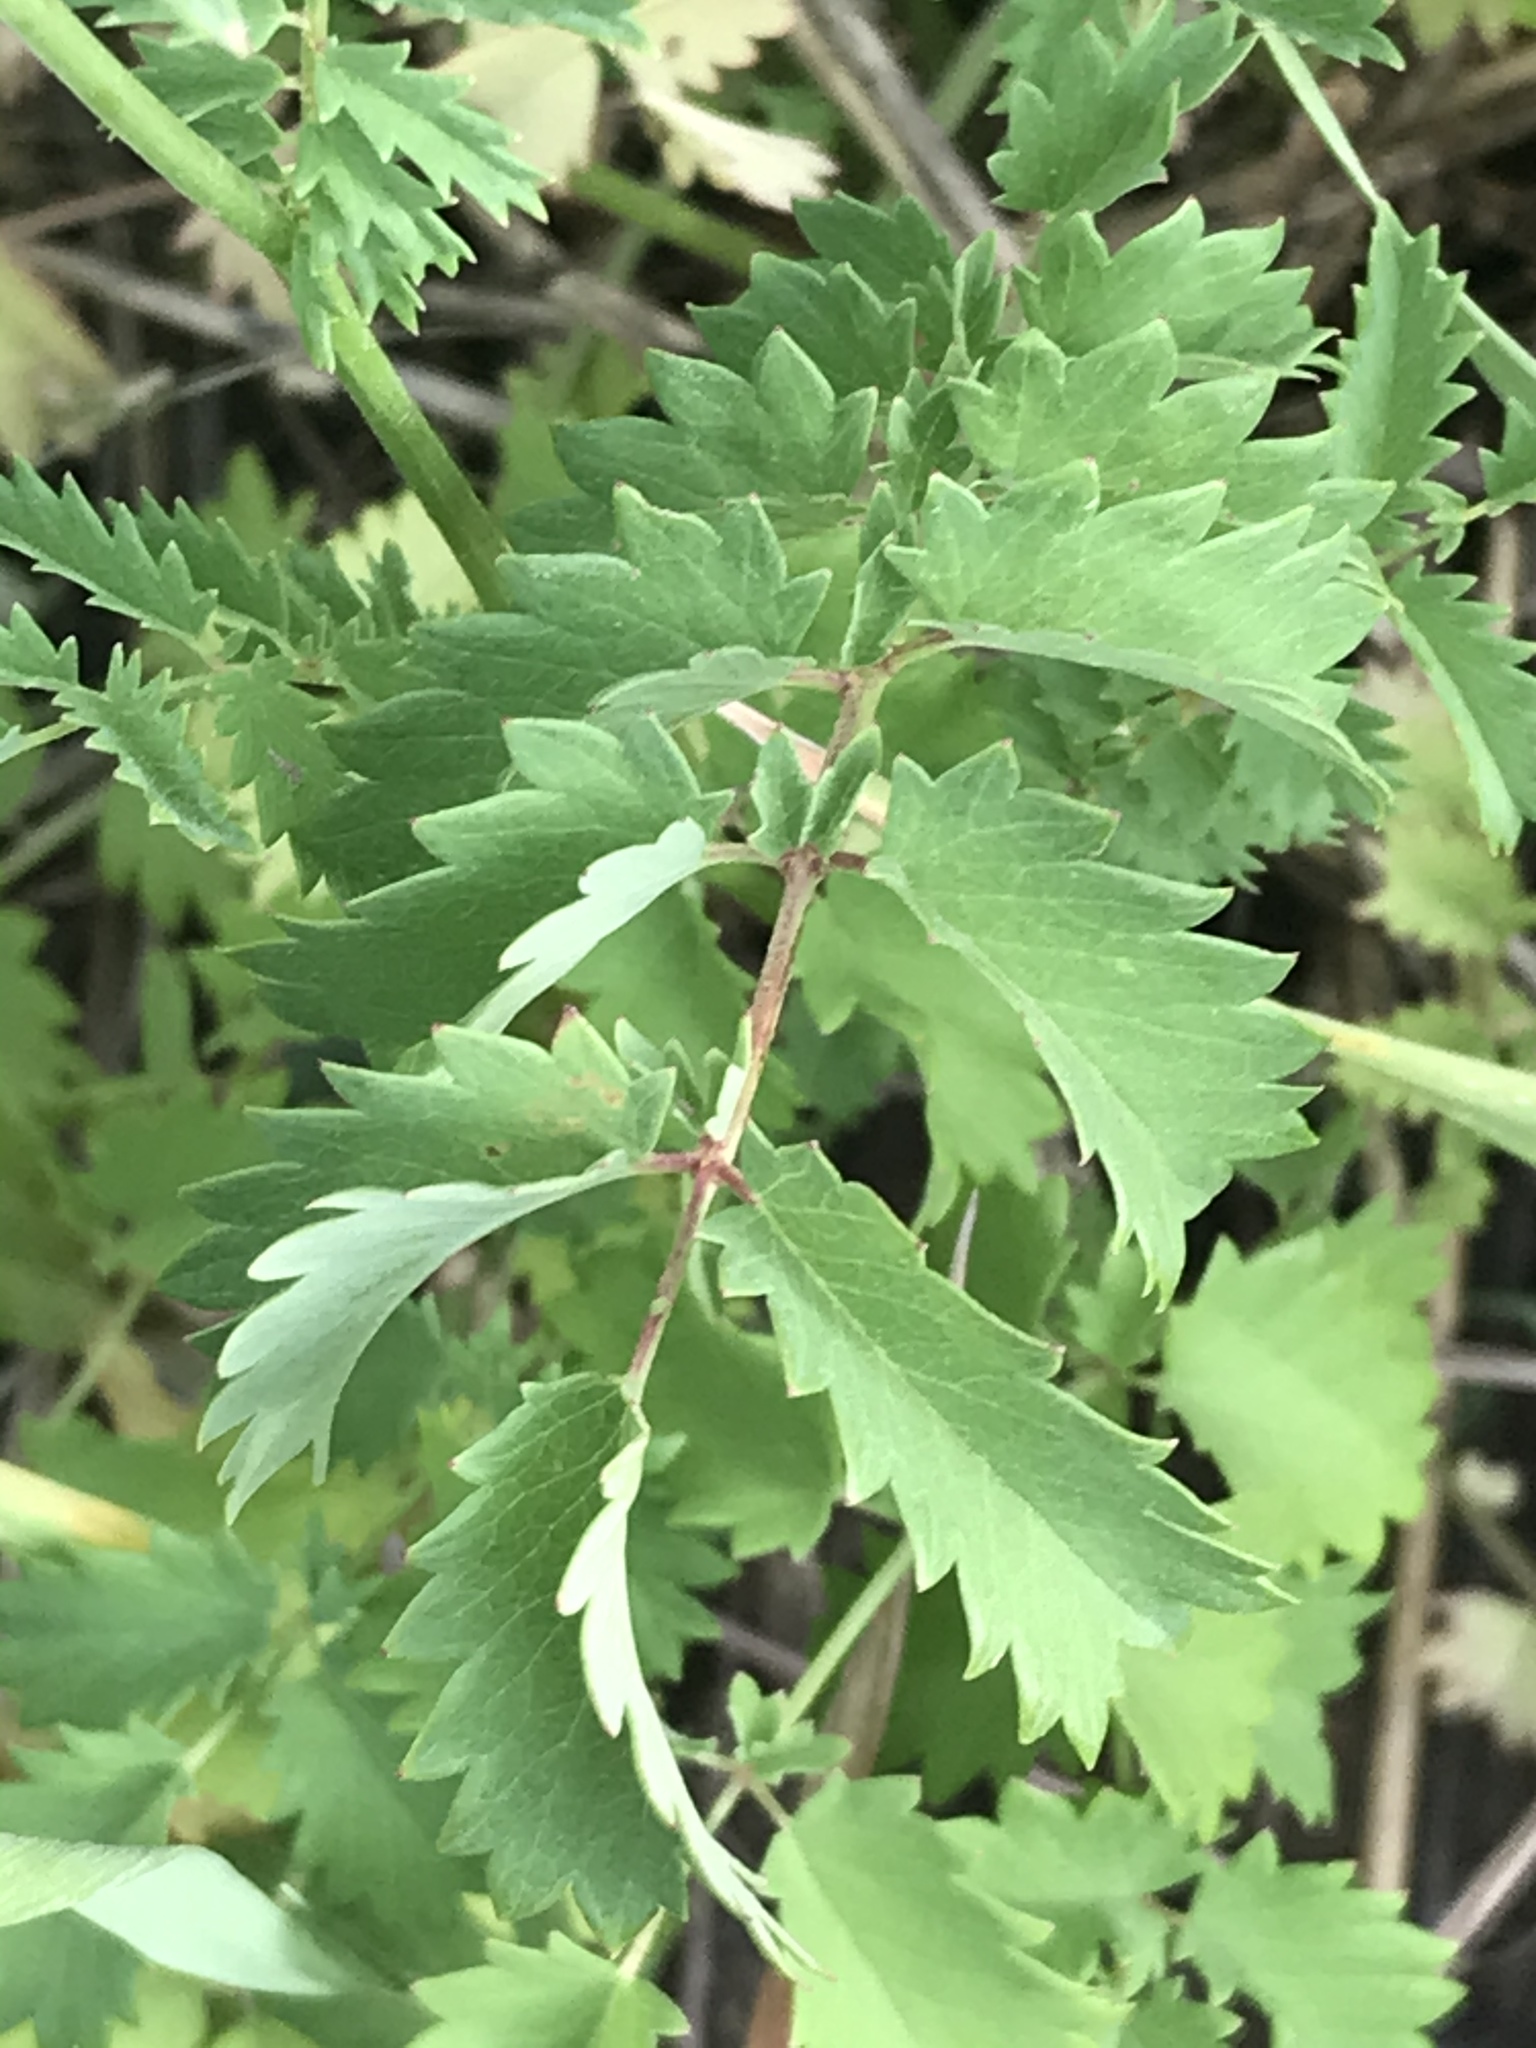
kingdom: Plantae
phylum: Tracheophyta
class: Magnoliopsida
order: Rosales
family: Rosaceae
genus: Poterium
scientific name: Poterium sanguisorba
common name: Salad burnet
